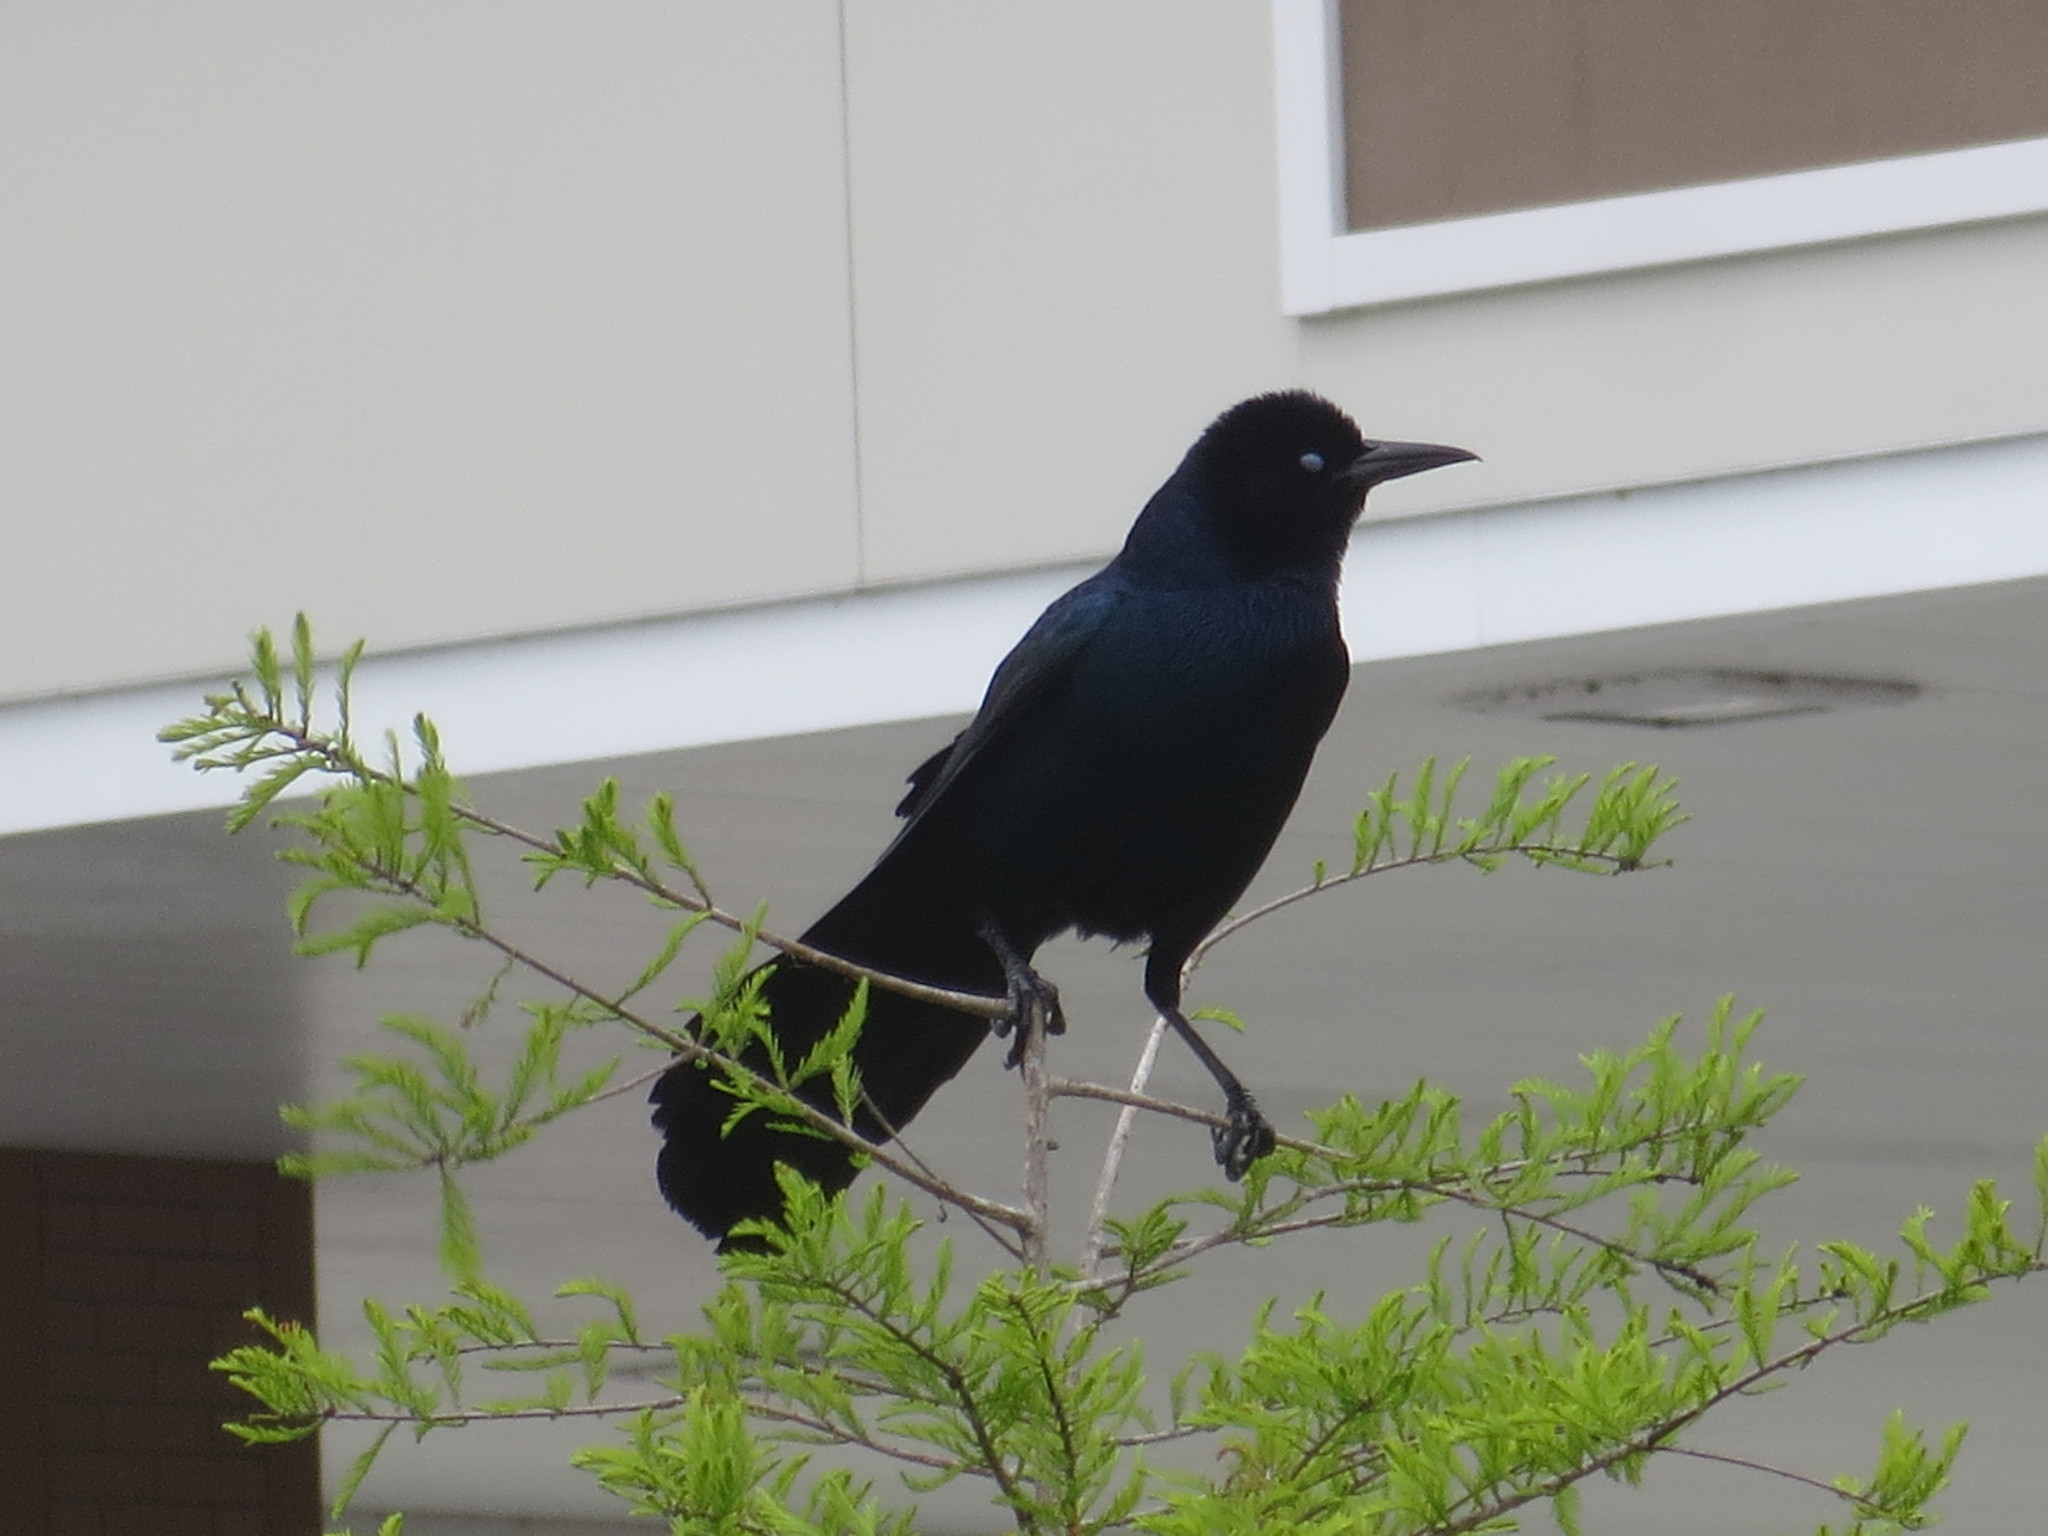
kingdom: Animalia
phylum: Chordata
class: Aves
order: Passeriformes
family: Icteridae
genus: Quiscalus
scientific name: Quiscalus major
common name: Boat-tailed grackle
